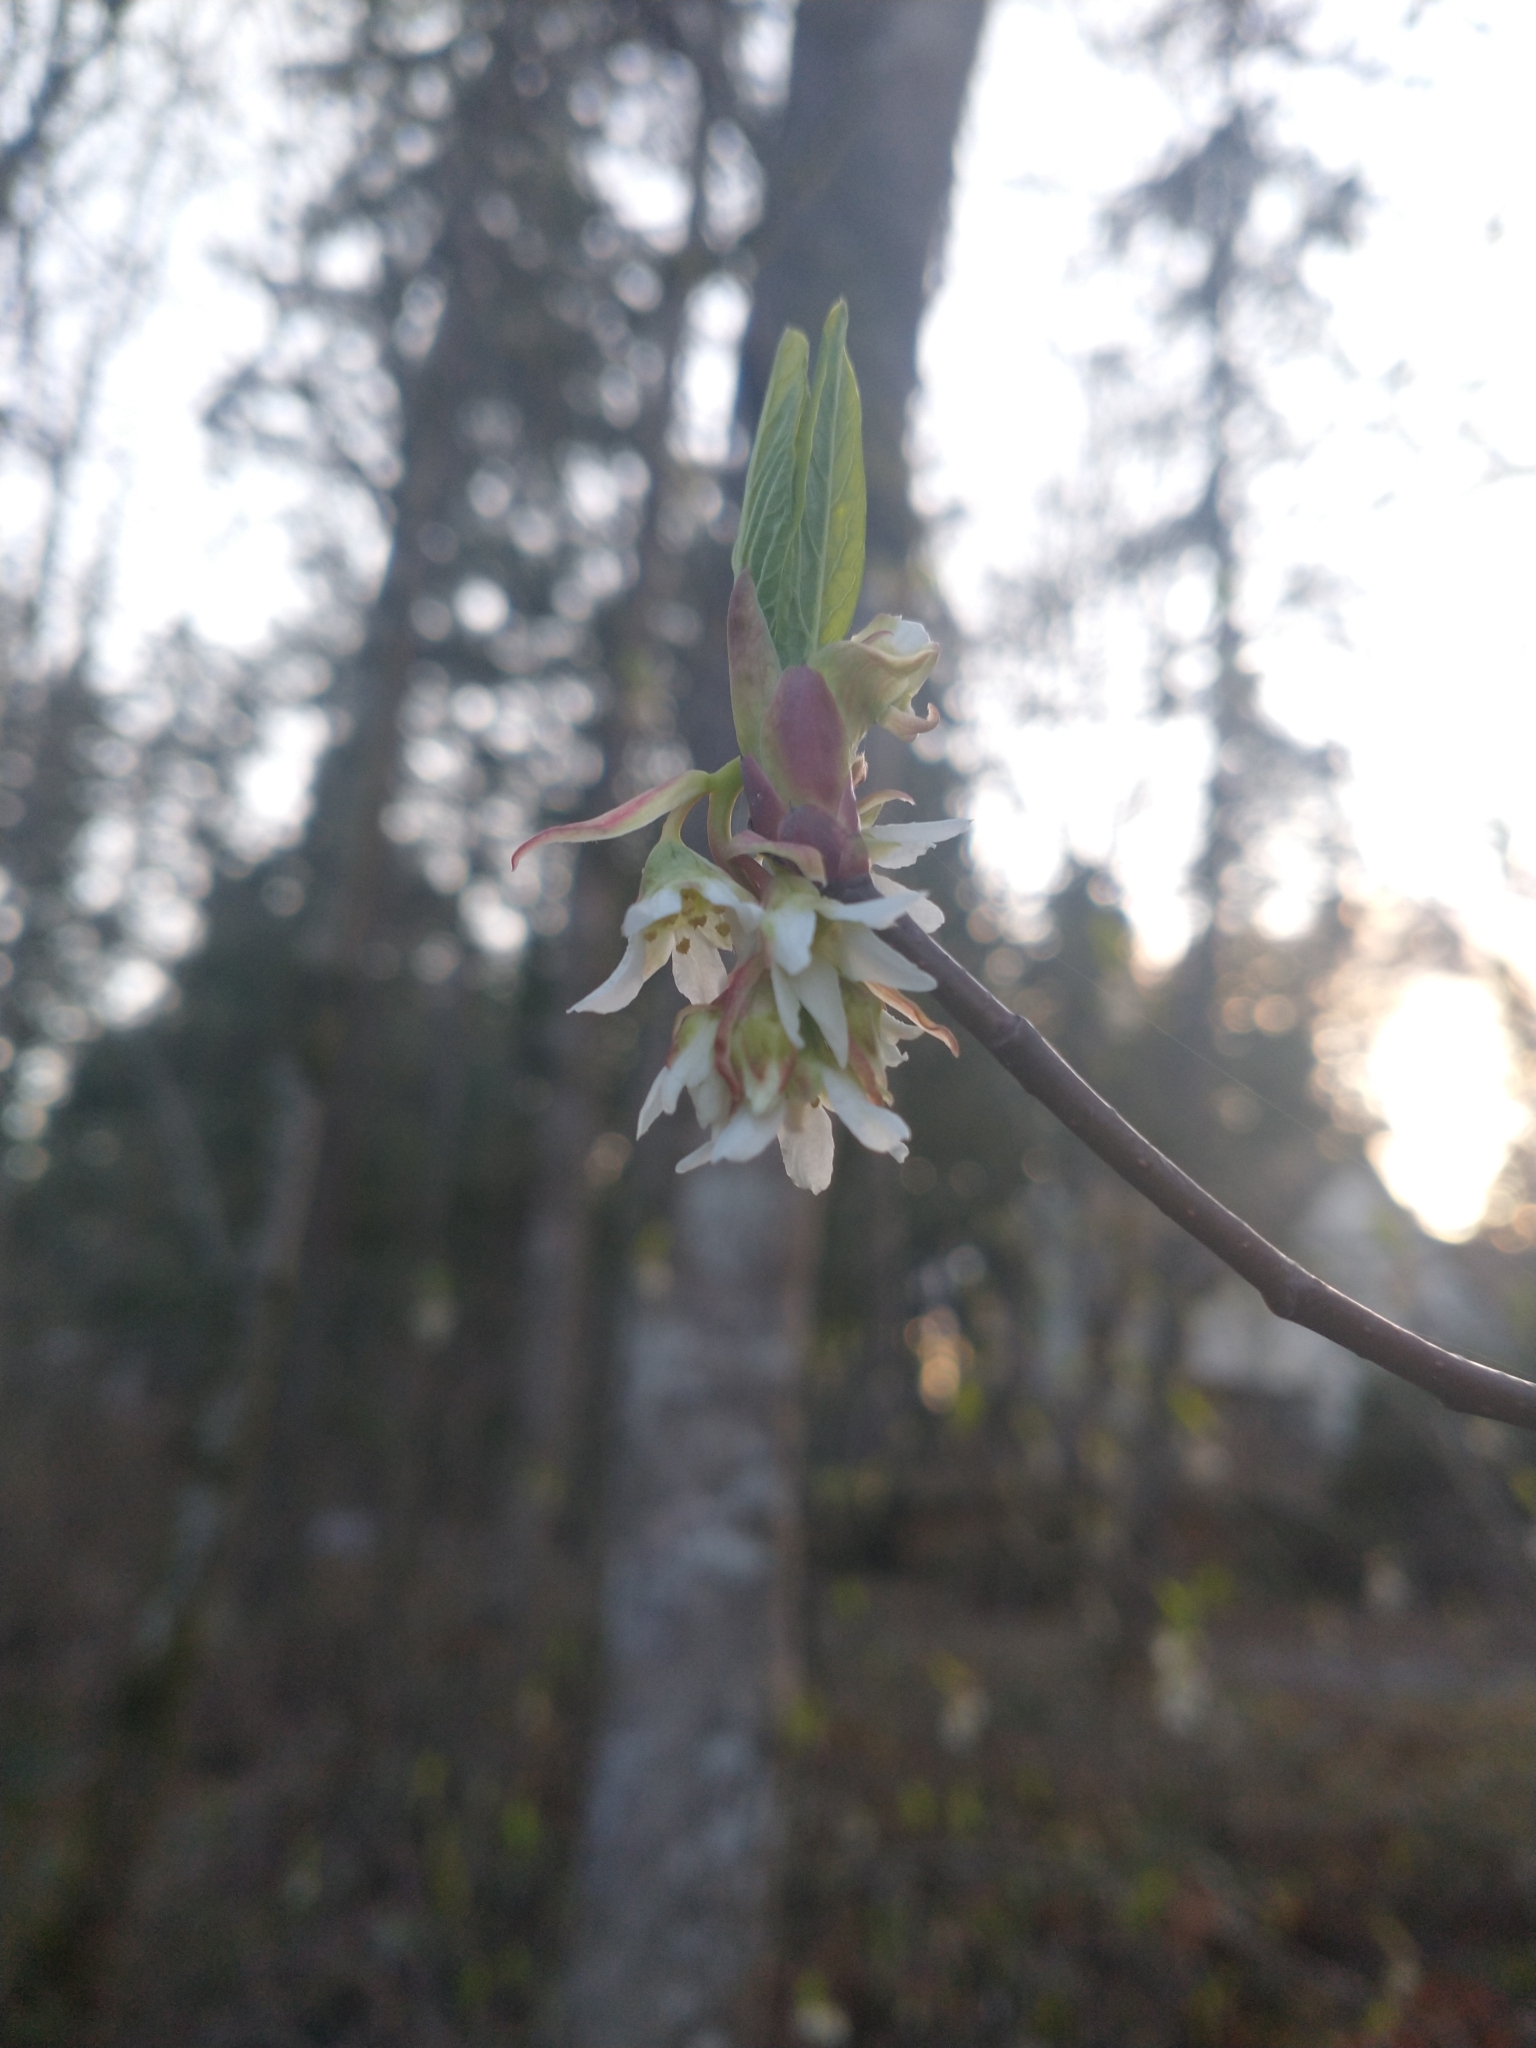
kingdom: Plantae
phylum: Tracheophyta
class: Magnoliopsida
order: Rosales
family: Rosaceae
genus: Oemleria
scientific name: Oemleria cerasiformis
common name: Osoberry
